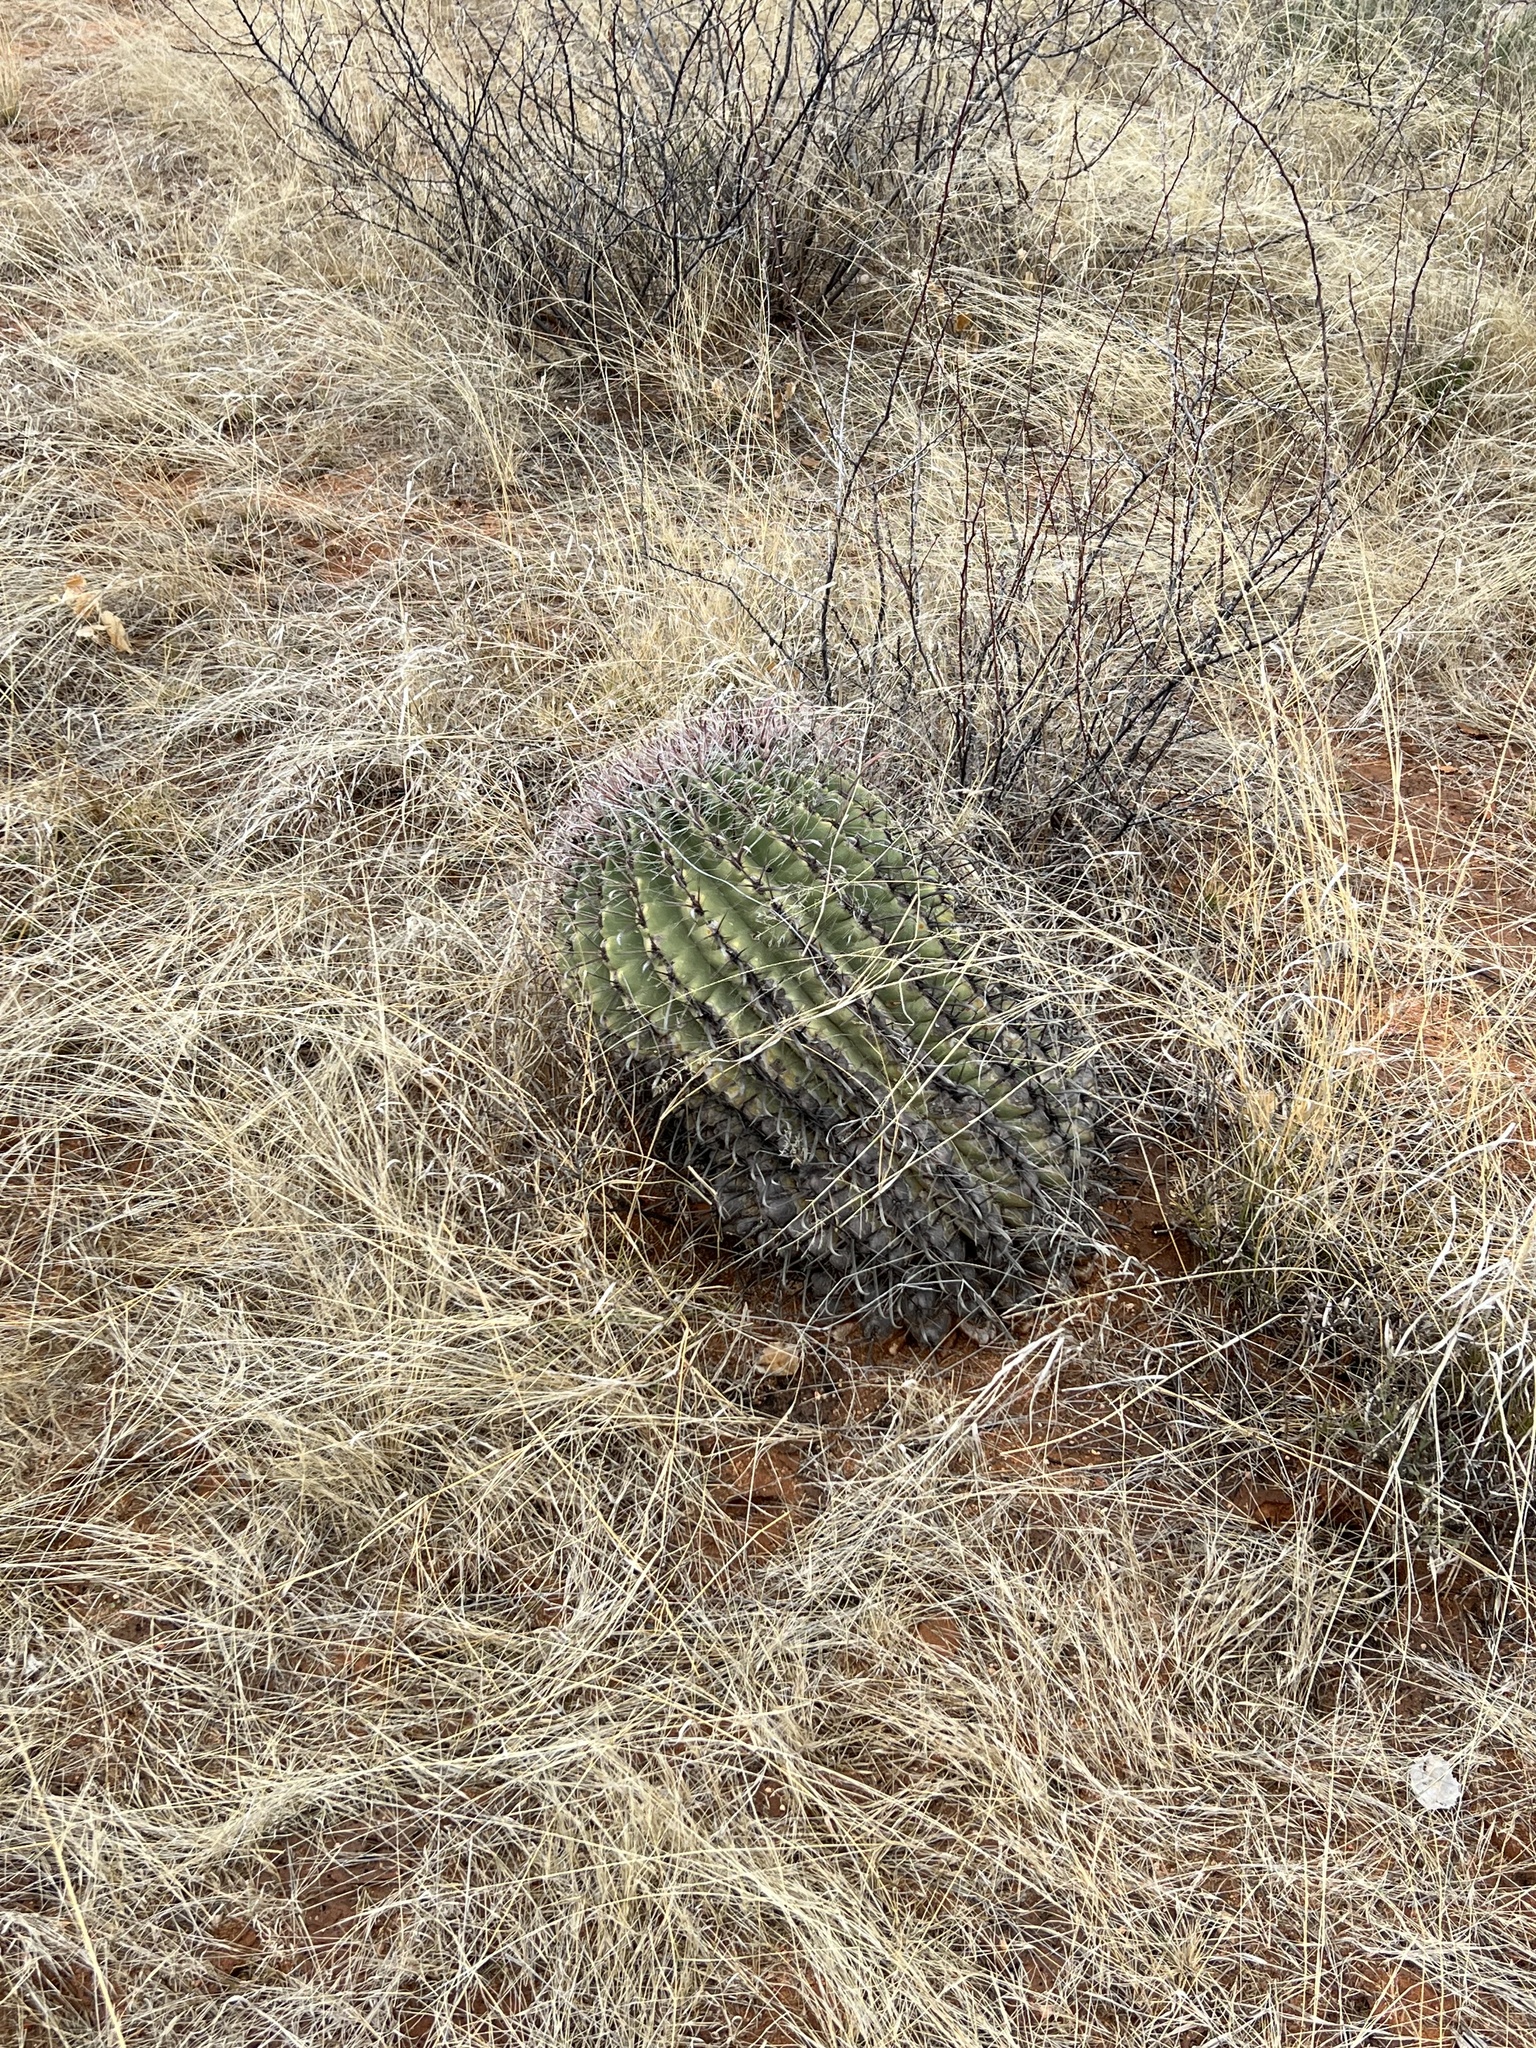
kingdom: Plantae
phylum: Tracheophyta
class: Magnoliopsida
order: Caryophyllales
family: Cactaceae
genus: Ferocactus
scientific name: Ferocactus wislizeni
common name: Candy barrel cactus
